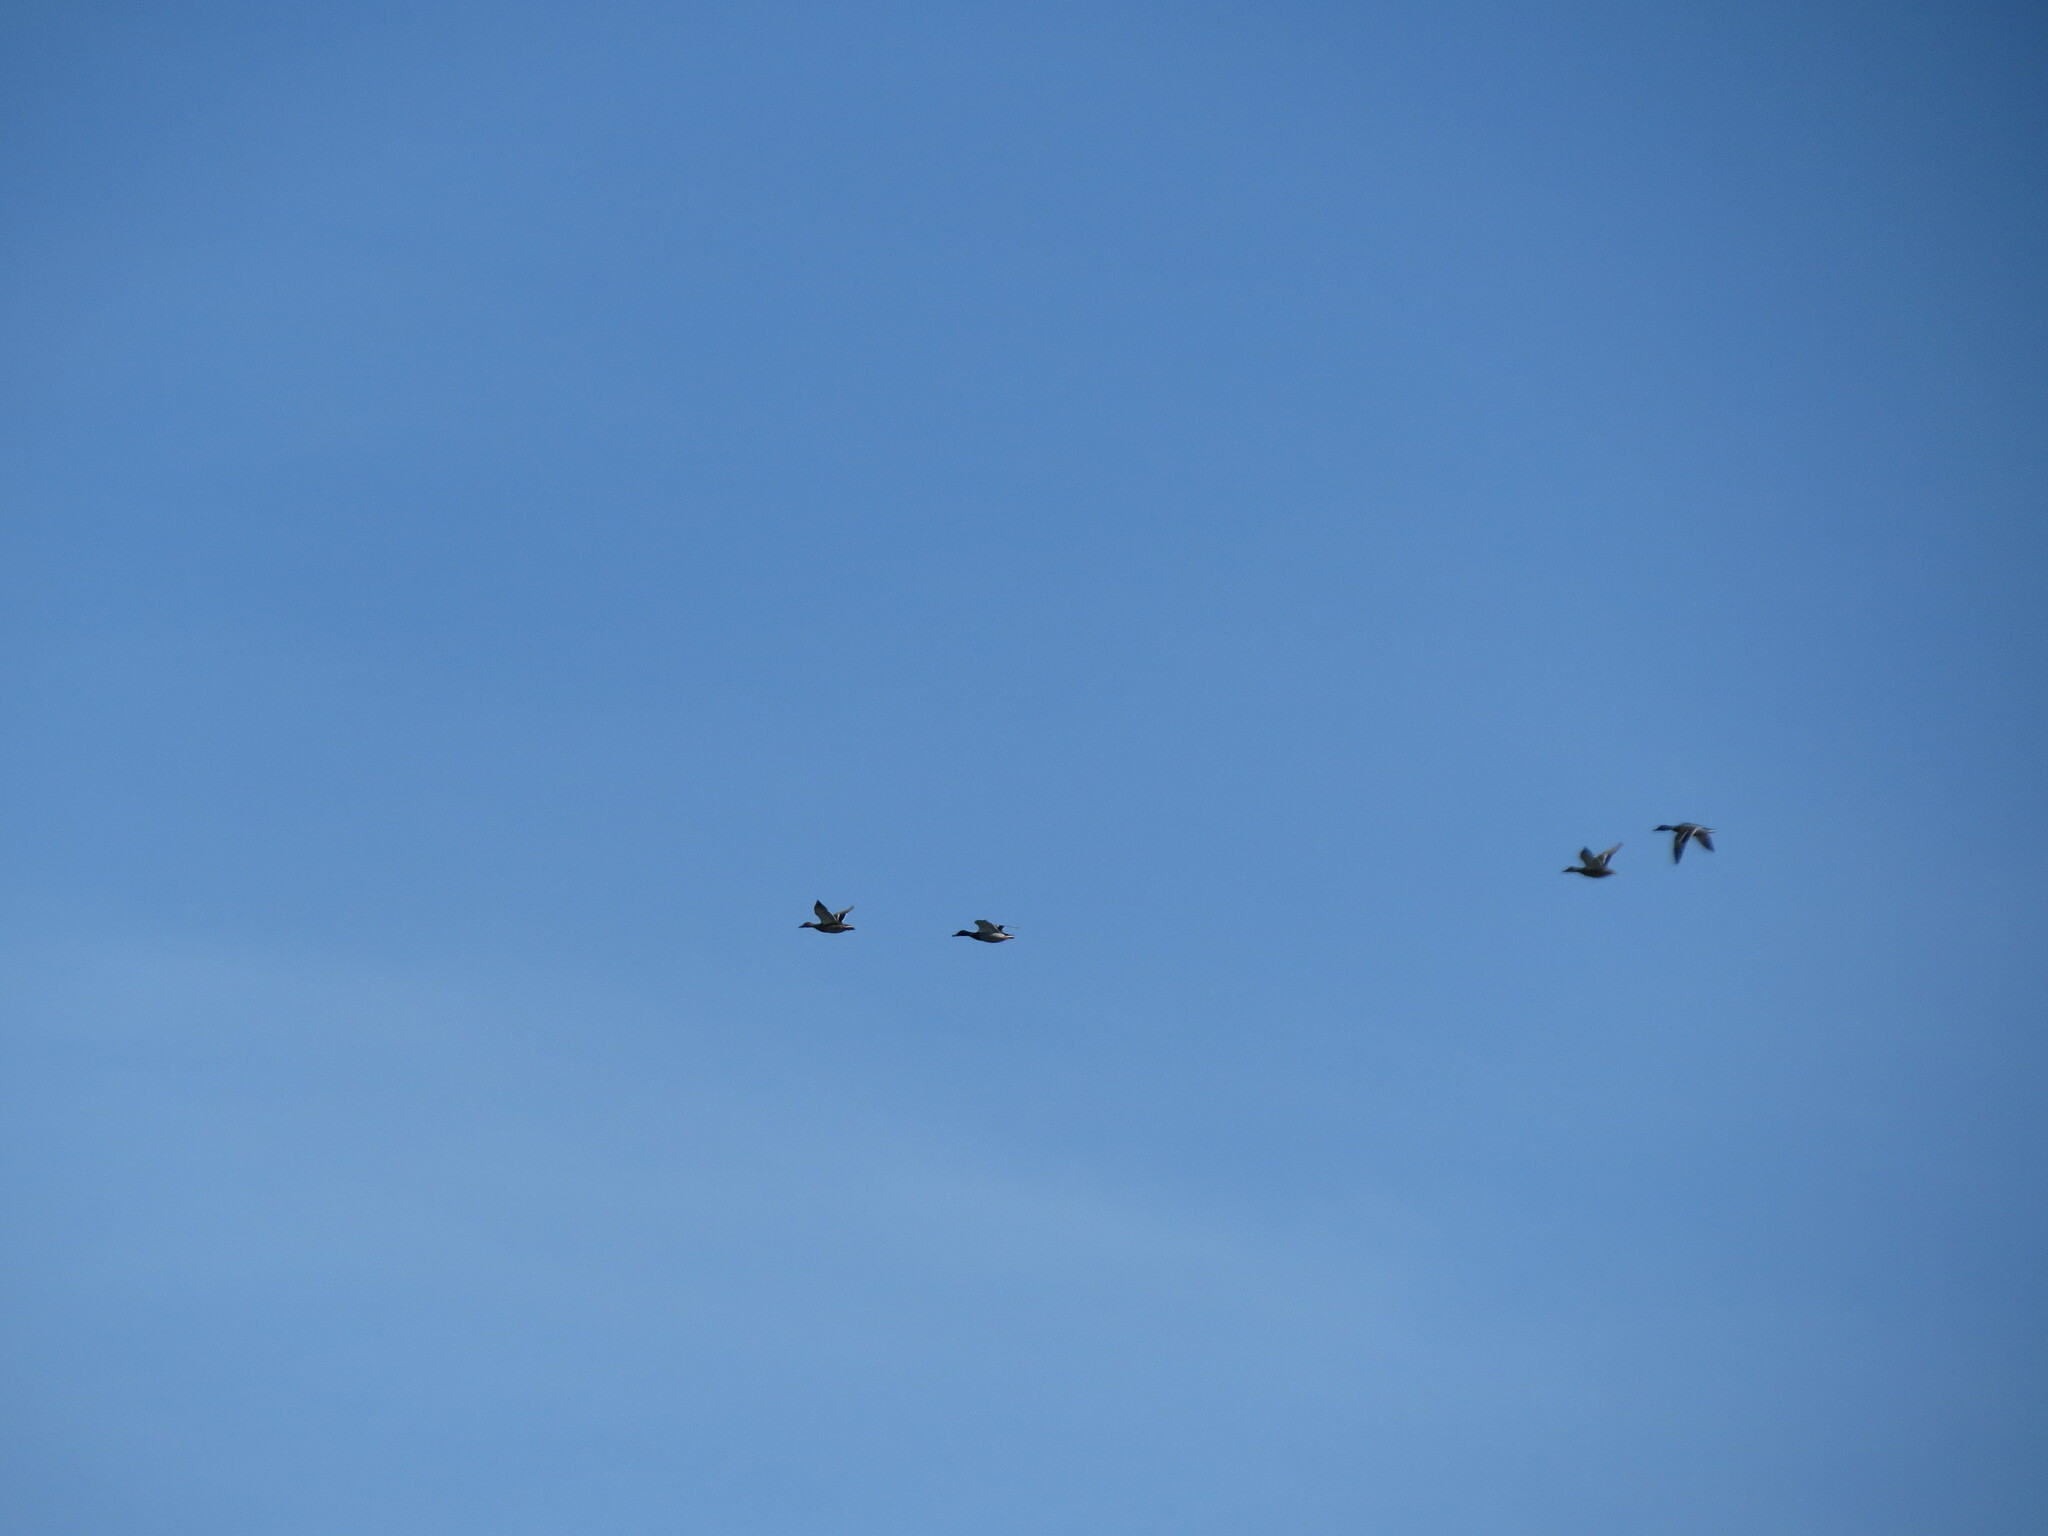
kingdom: Animalia
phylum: Chordata
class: Aves
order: Anseriformes
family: Anatidae
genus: Anas
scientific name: Anas platyrhynchos
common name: Mallard
